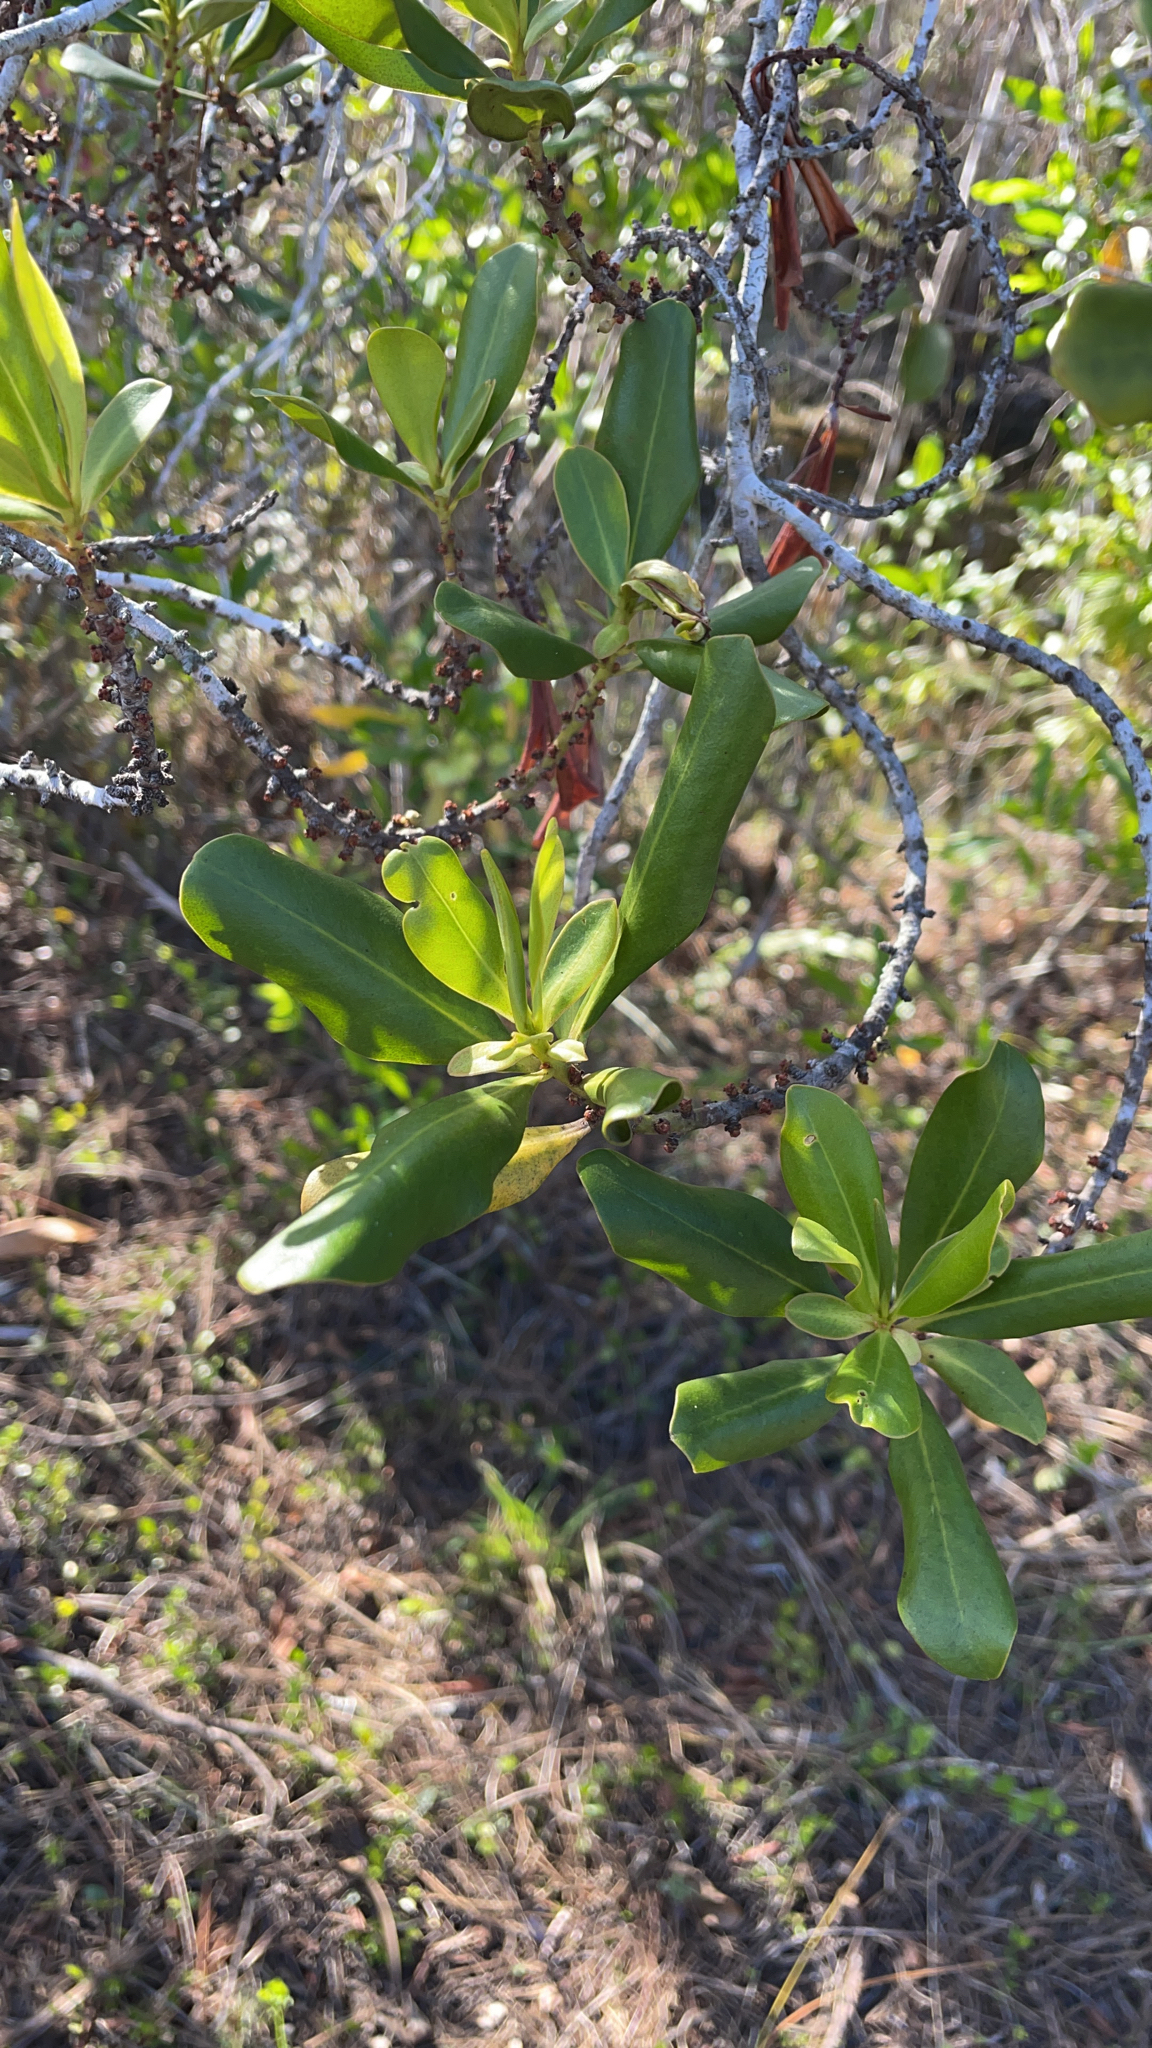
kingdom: Plantae
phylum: Tracheophyta
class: Magnoliopsida
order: Ericales
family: Primulaceae
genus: Myrsine
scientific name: Myrsine floridana
